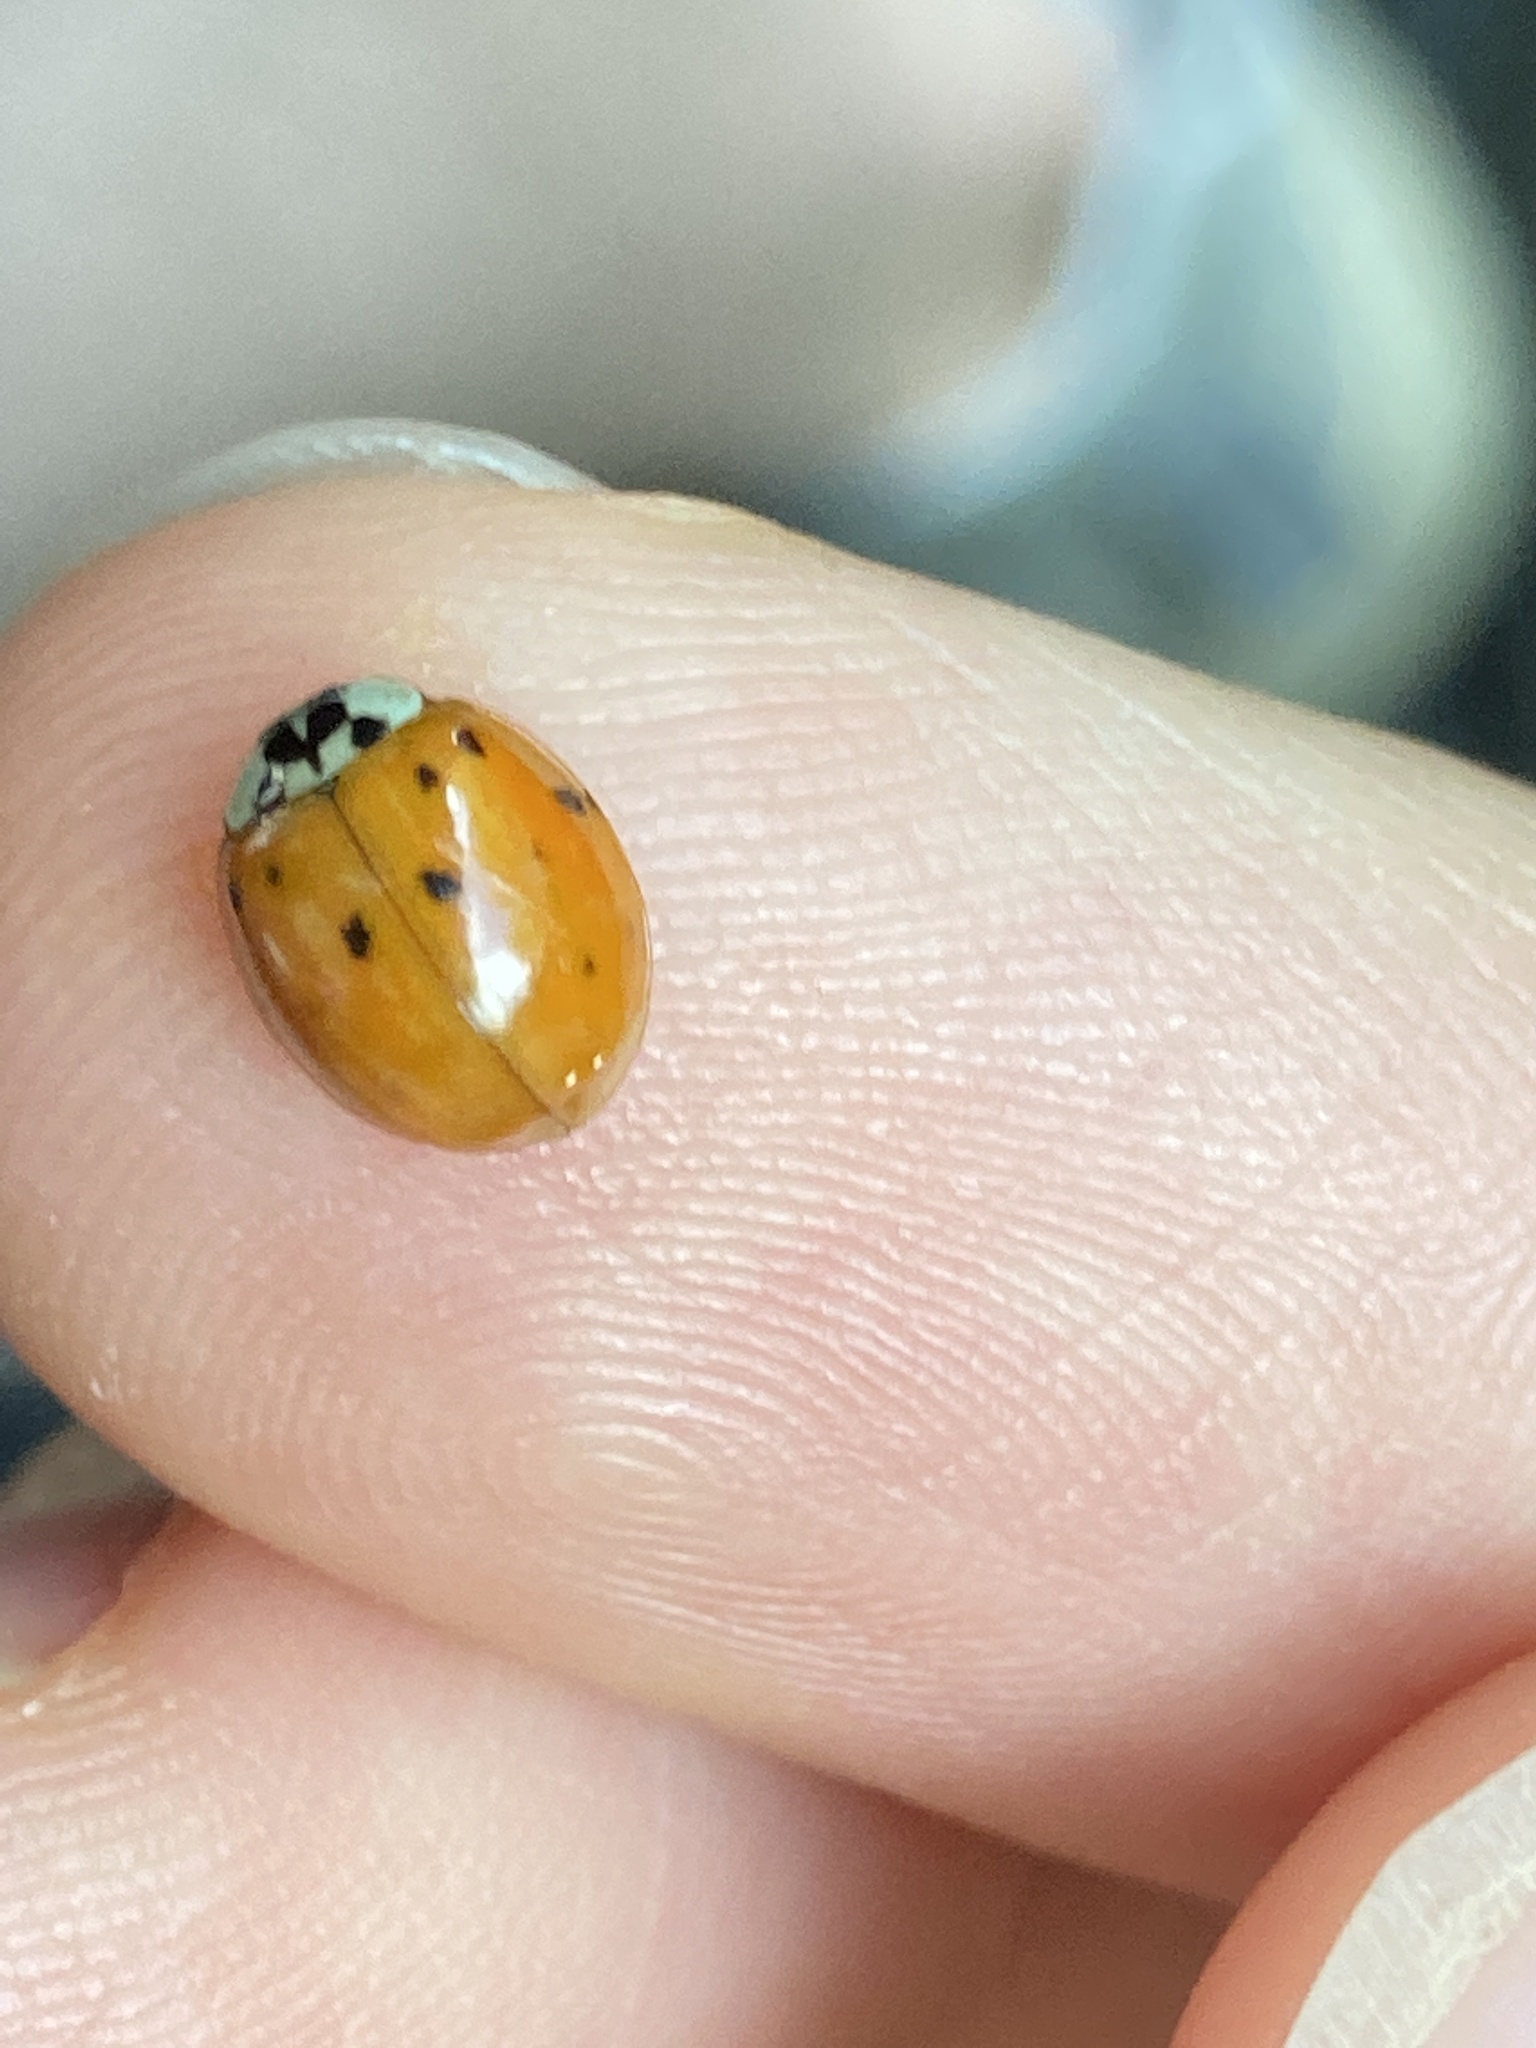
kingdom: Animalia
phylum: Arthropoda
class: Insecta
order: Coleoptera
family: Coccinellidae
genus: Harmonia
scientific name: Harmonia axyridis
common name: Harlequin ladybird
